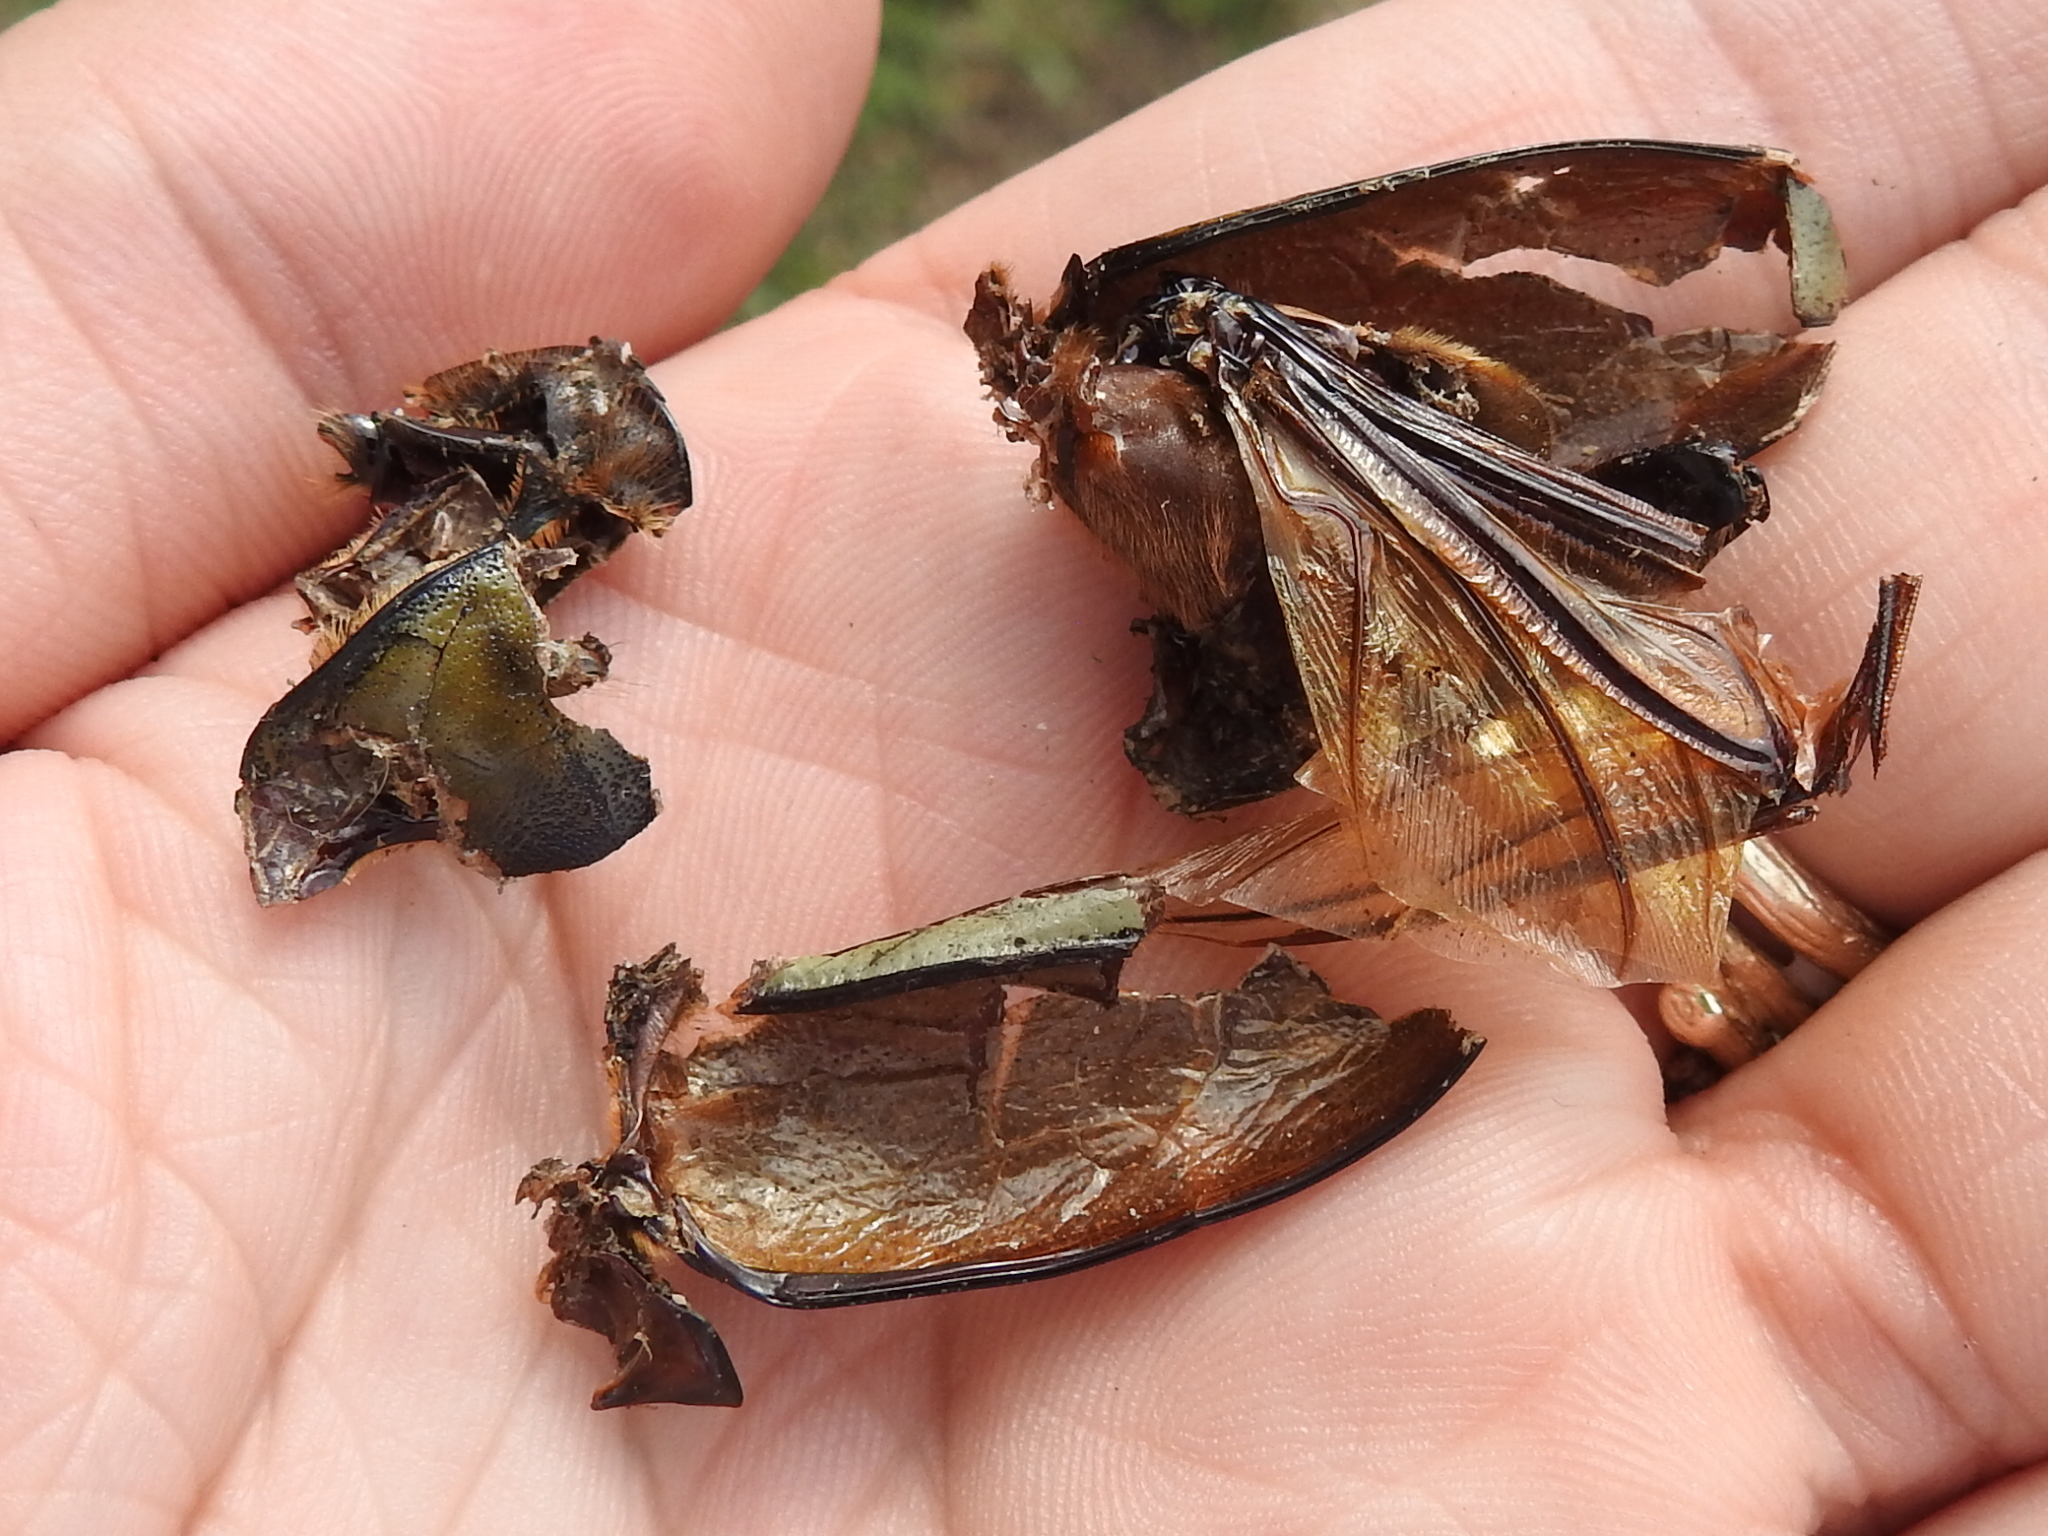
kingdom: Animalia
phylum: Arthropoda
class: Insecta
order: Coleoptera
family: Scarabaeidae
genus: Dynastes
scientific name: Dynastes tityus
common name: Eastern hercules beetle
